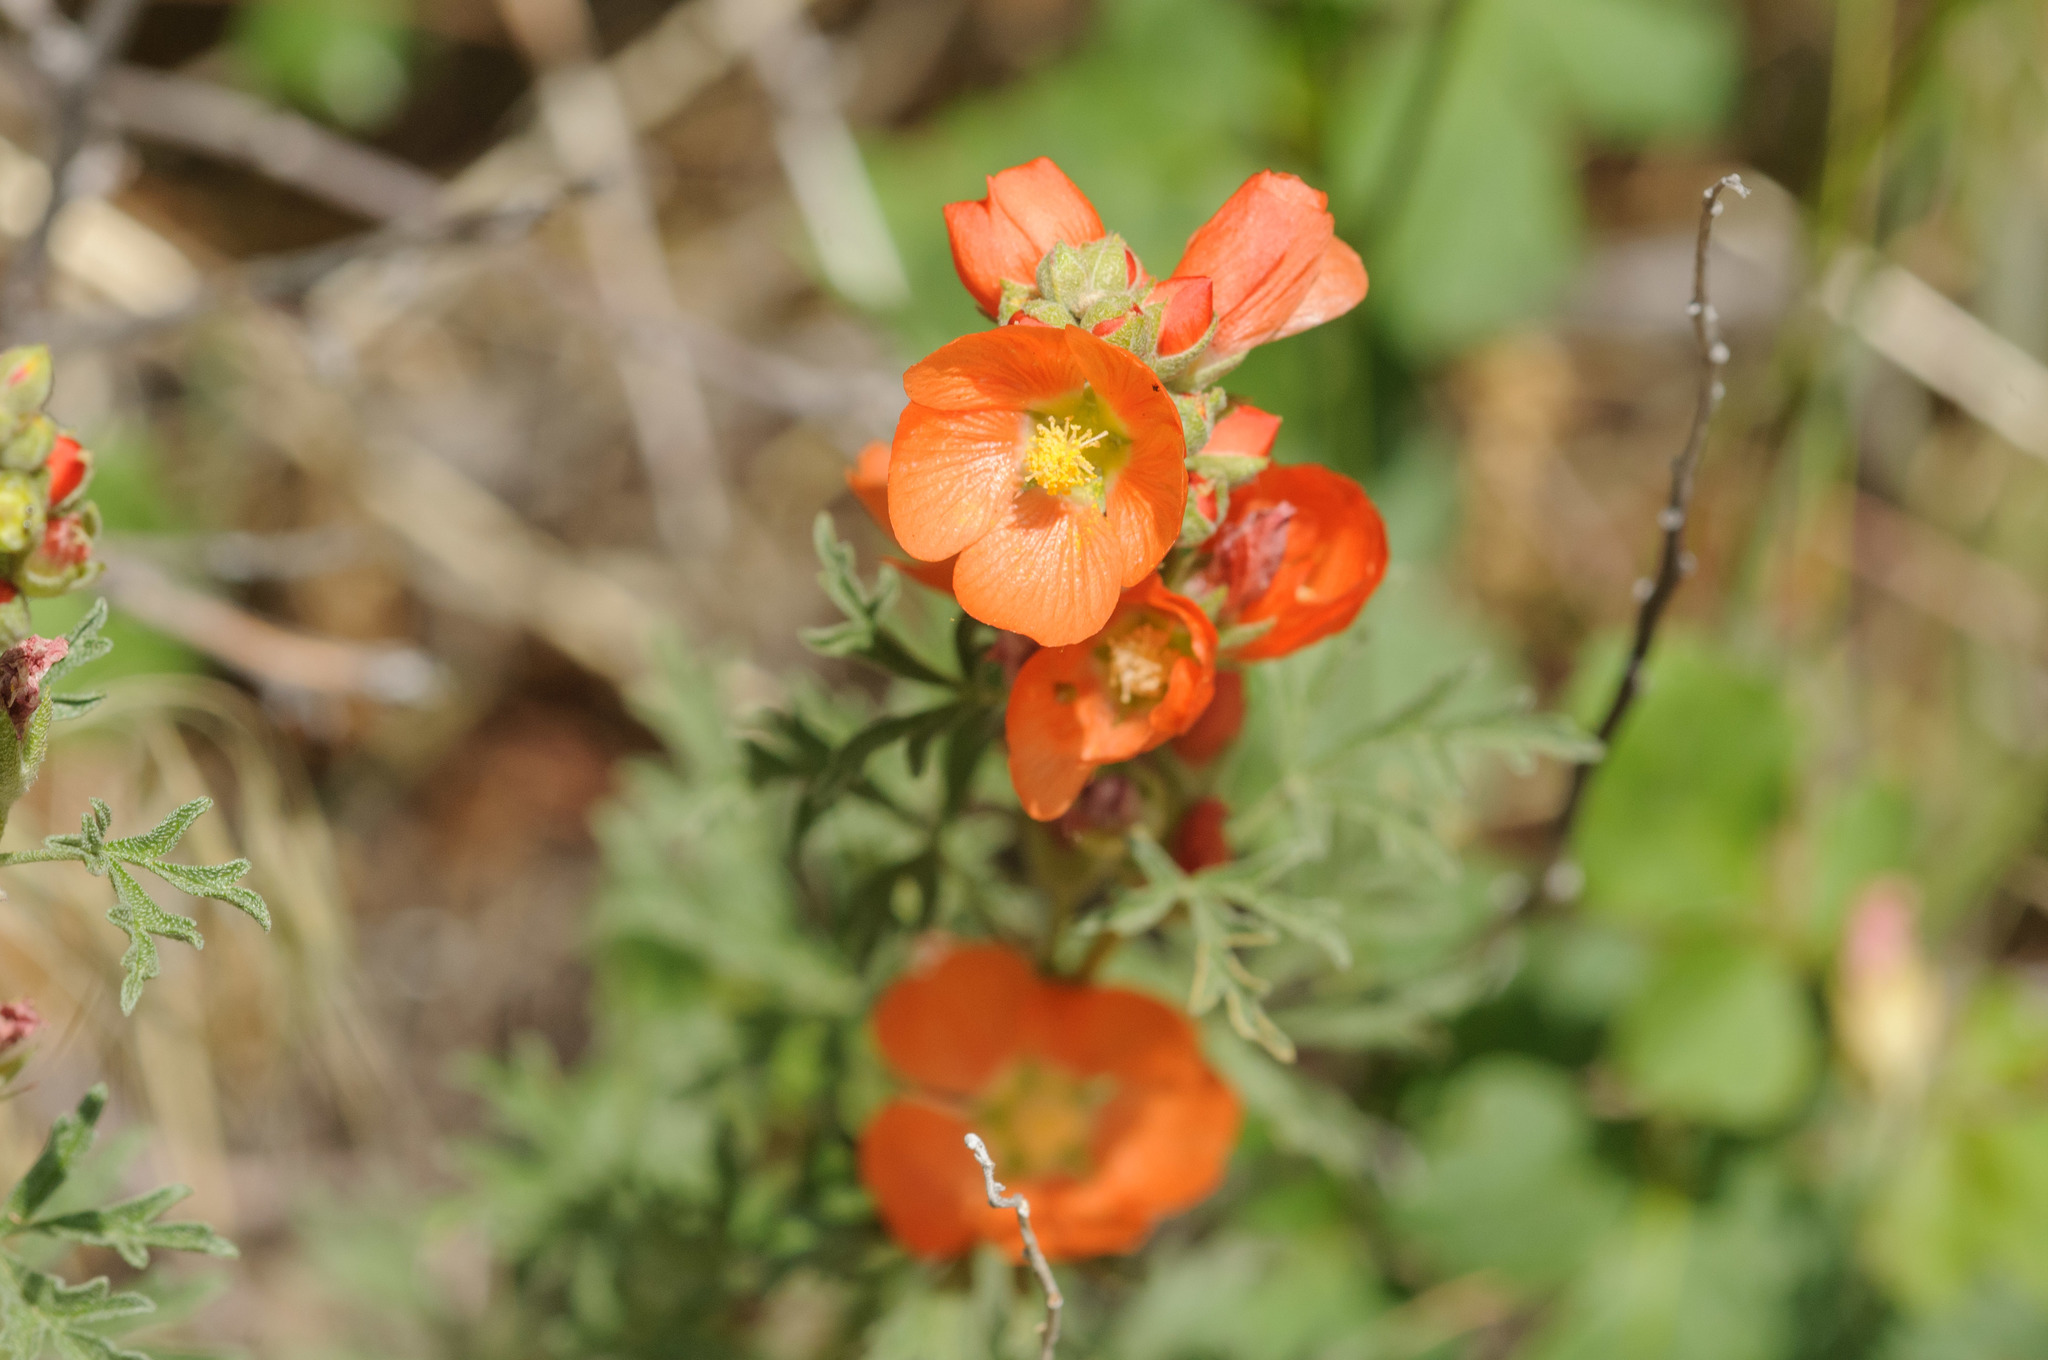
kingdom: Plantae
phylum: Tracheophyta
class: Magnoliopsida
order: Malvales
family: Malvaceae
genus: Sphaeralcea
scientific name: Sphaeralcea coccinea
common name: Moss-rose
